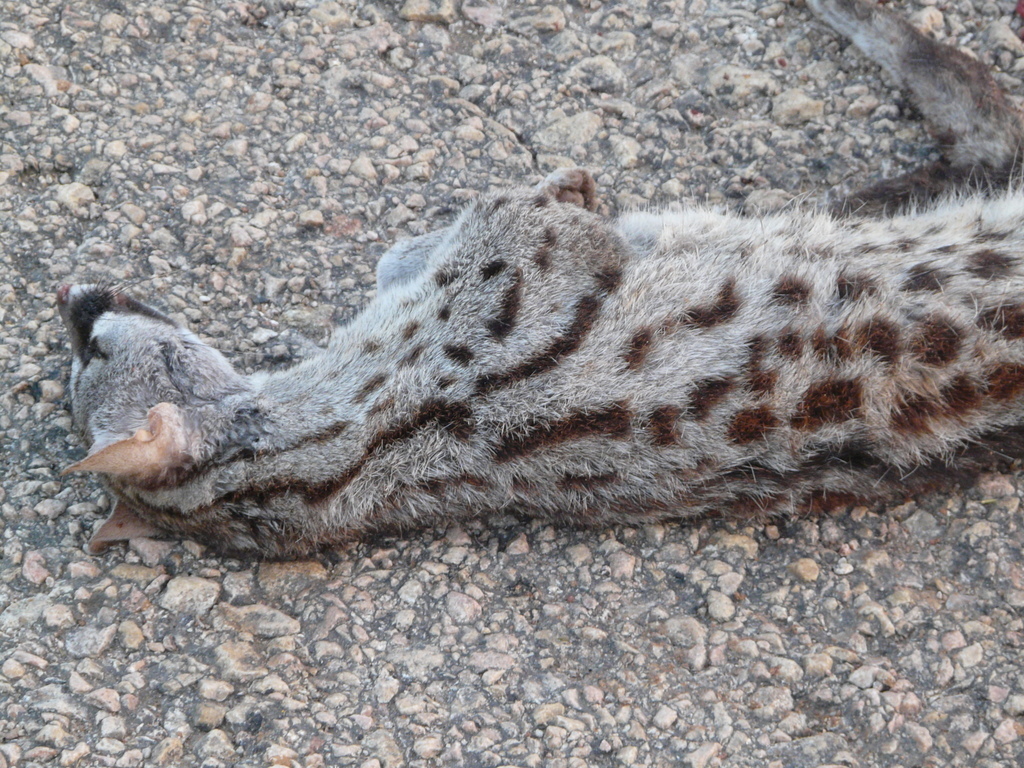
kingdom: Animalia
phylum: Chordata
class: Mammalia
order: Carnivora
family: Viverridae
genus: Genetta
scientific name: Genetta genetta
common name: Common genet
